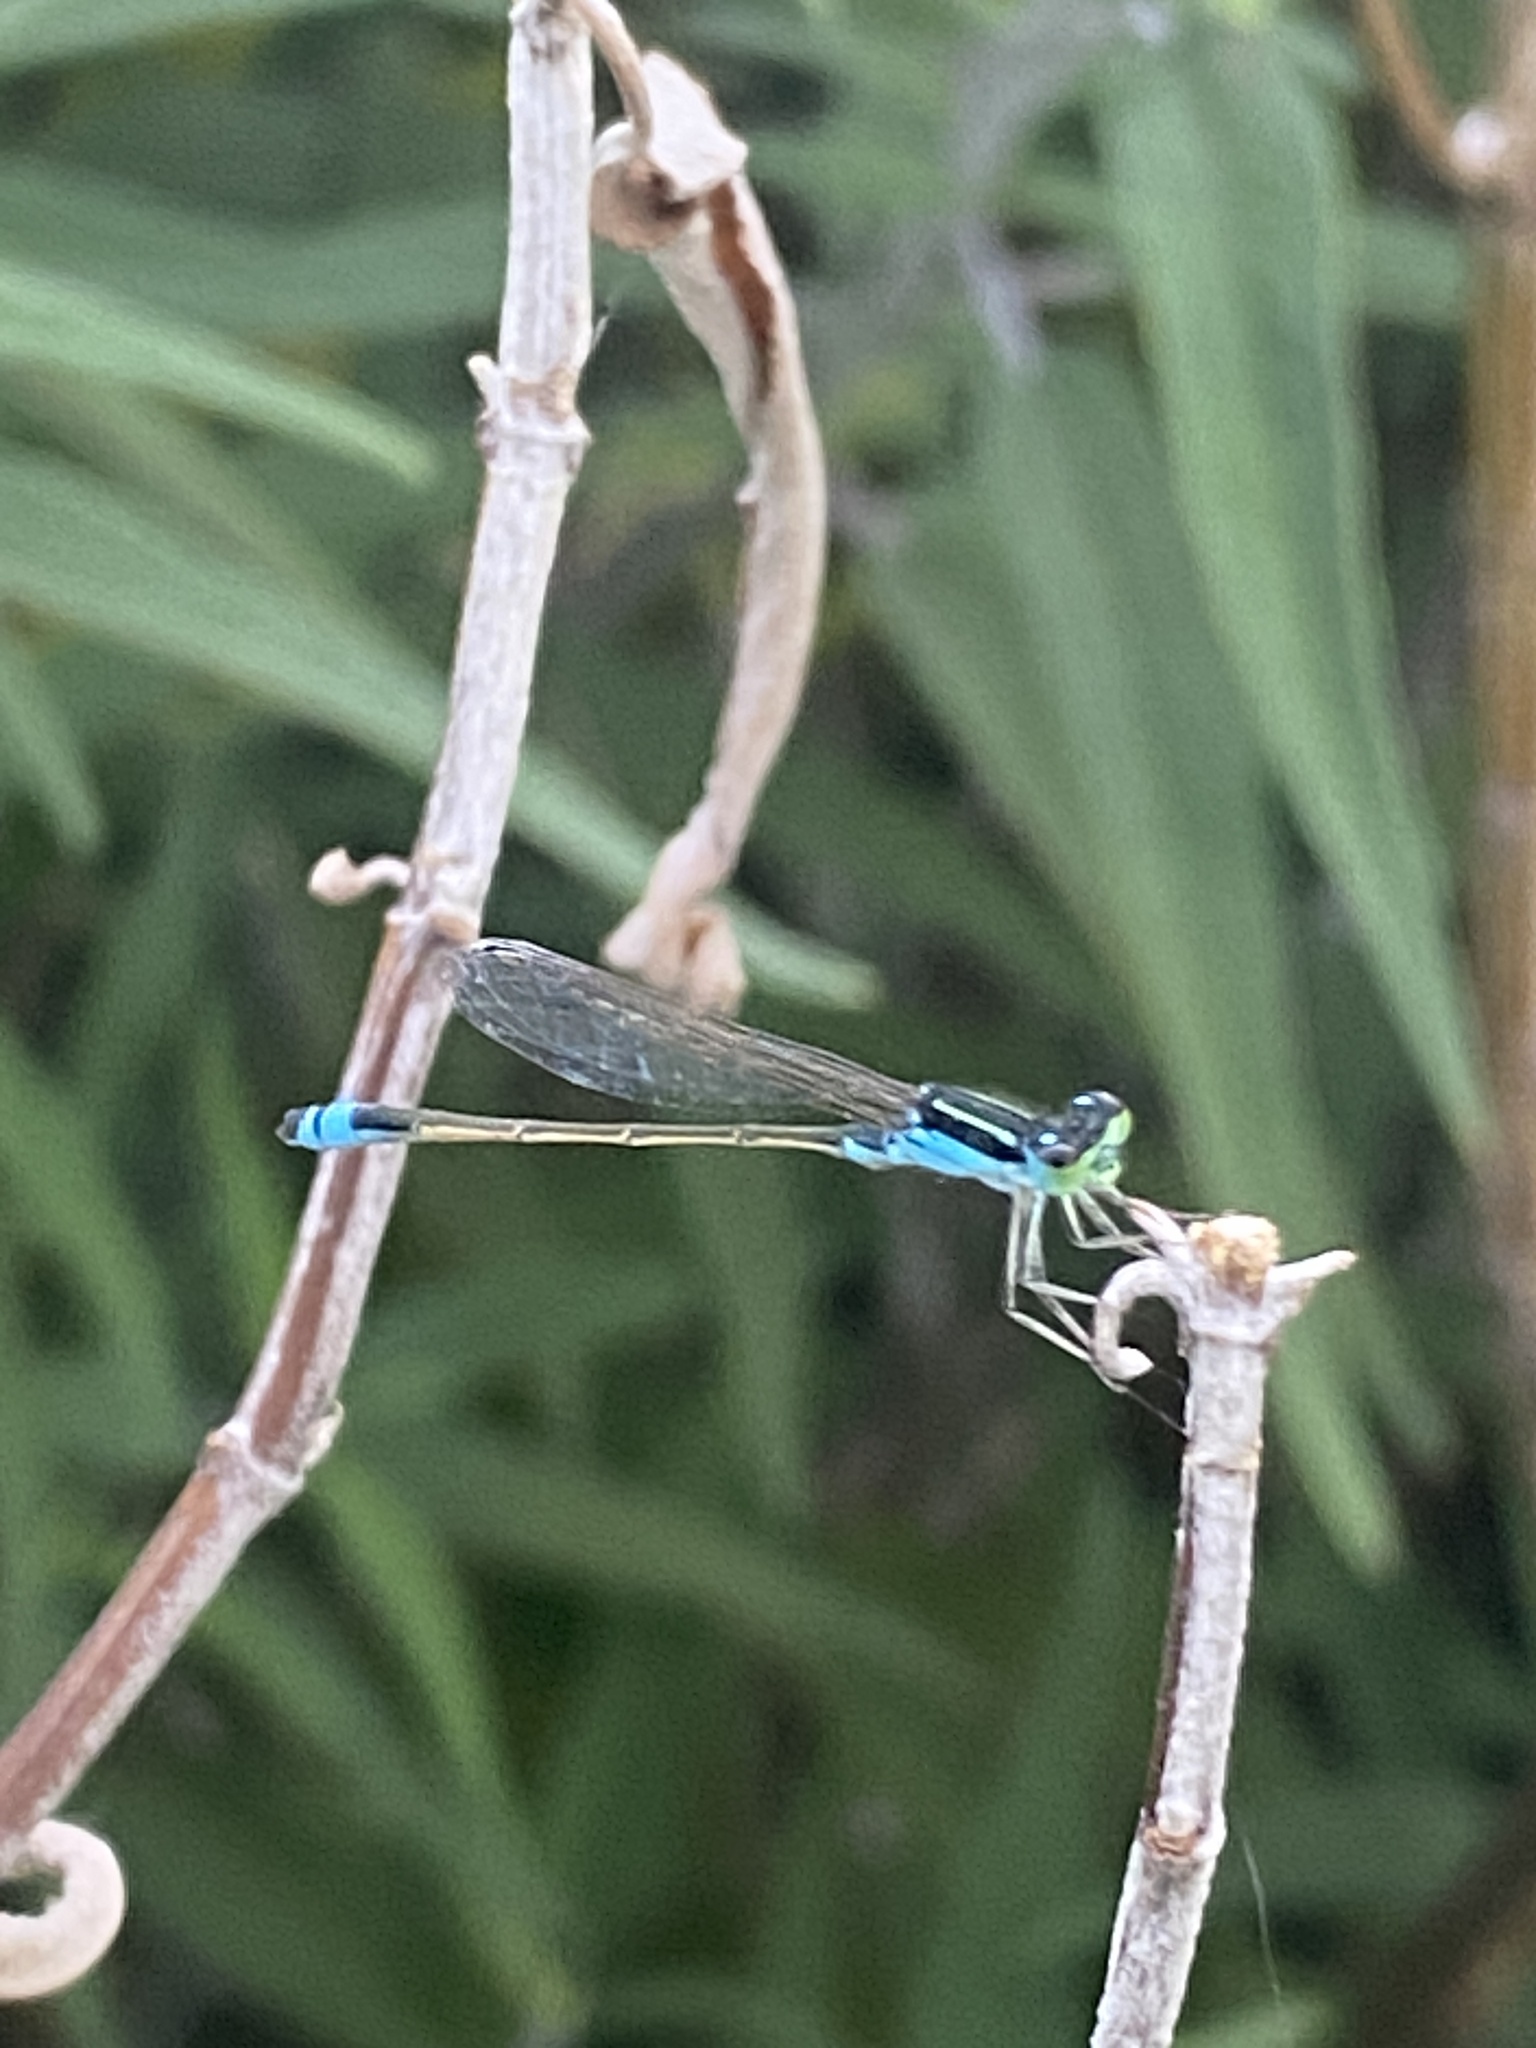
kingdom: Animalia
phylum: Arthropoda
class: Insecta
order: Odonata
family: Coenagrionidae
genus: Ischnura
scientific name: Ischnura fluviatilis
